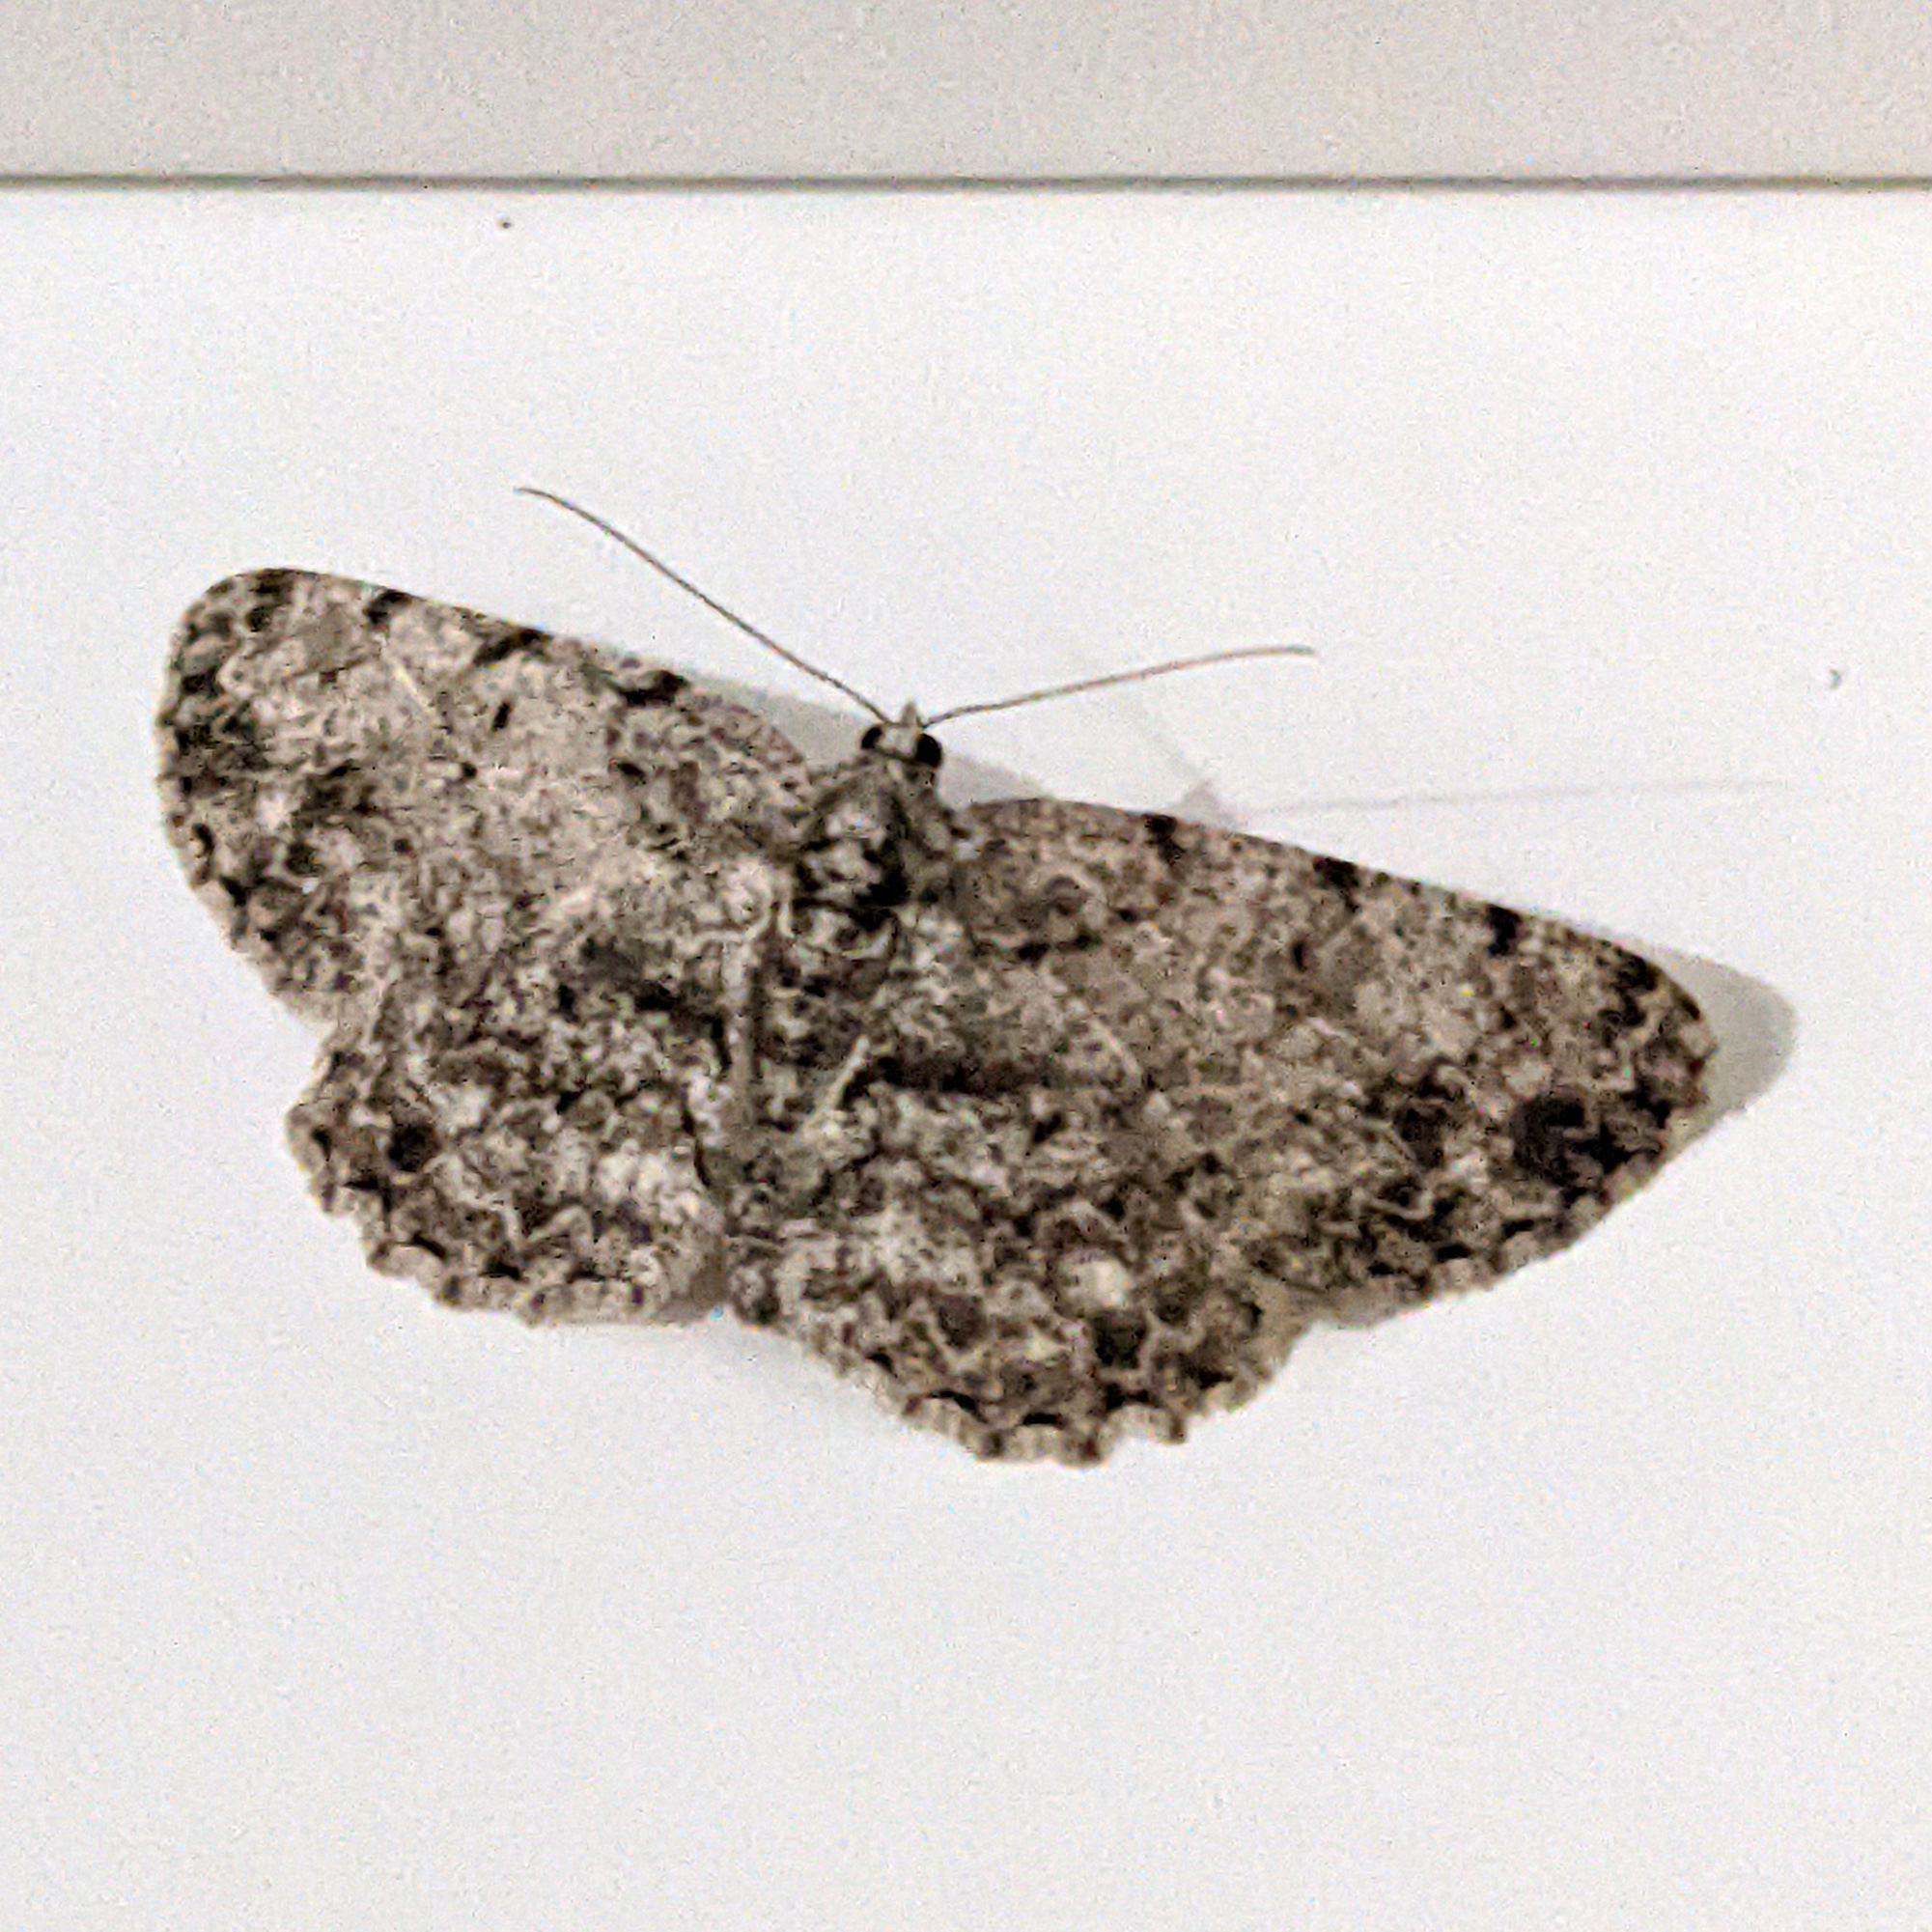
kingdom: Animalia
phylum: Arthropoda
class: Insecta
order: Lepidoptera
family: Geometridae
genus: Protoboarmia
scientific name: Protoboarmia porcelaria
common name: Porcelain gray
